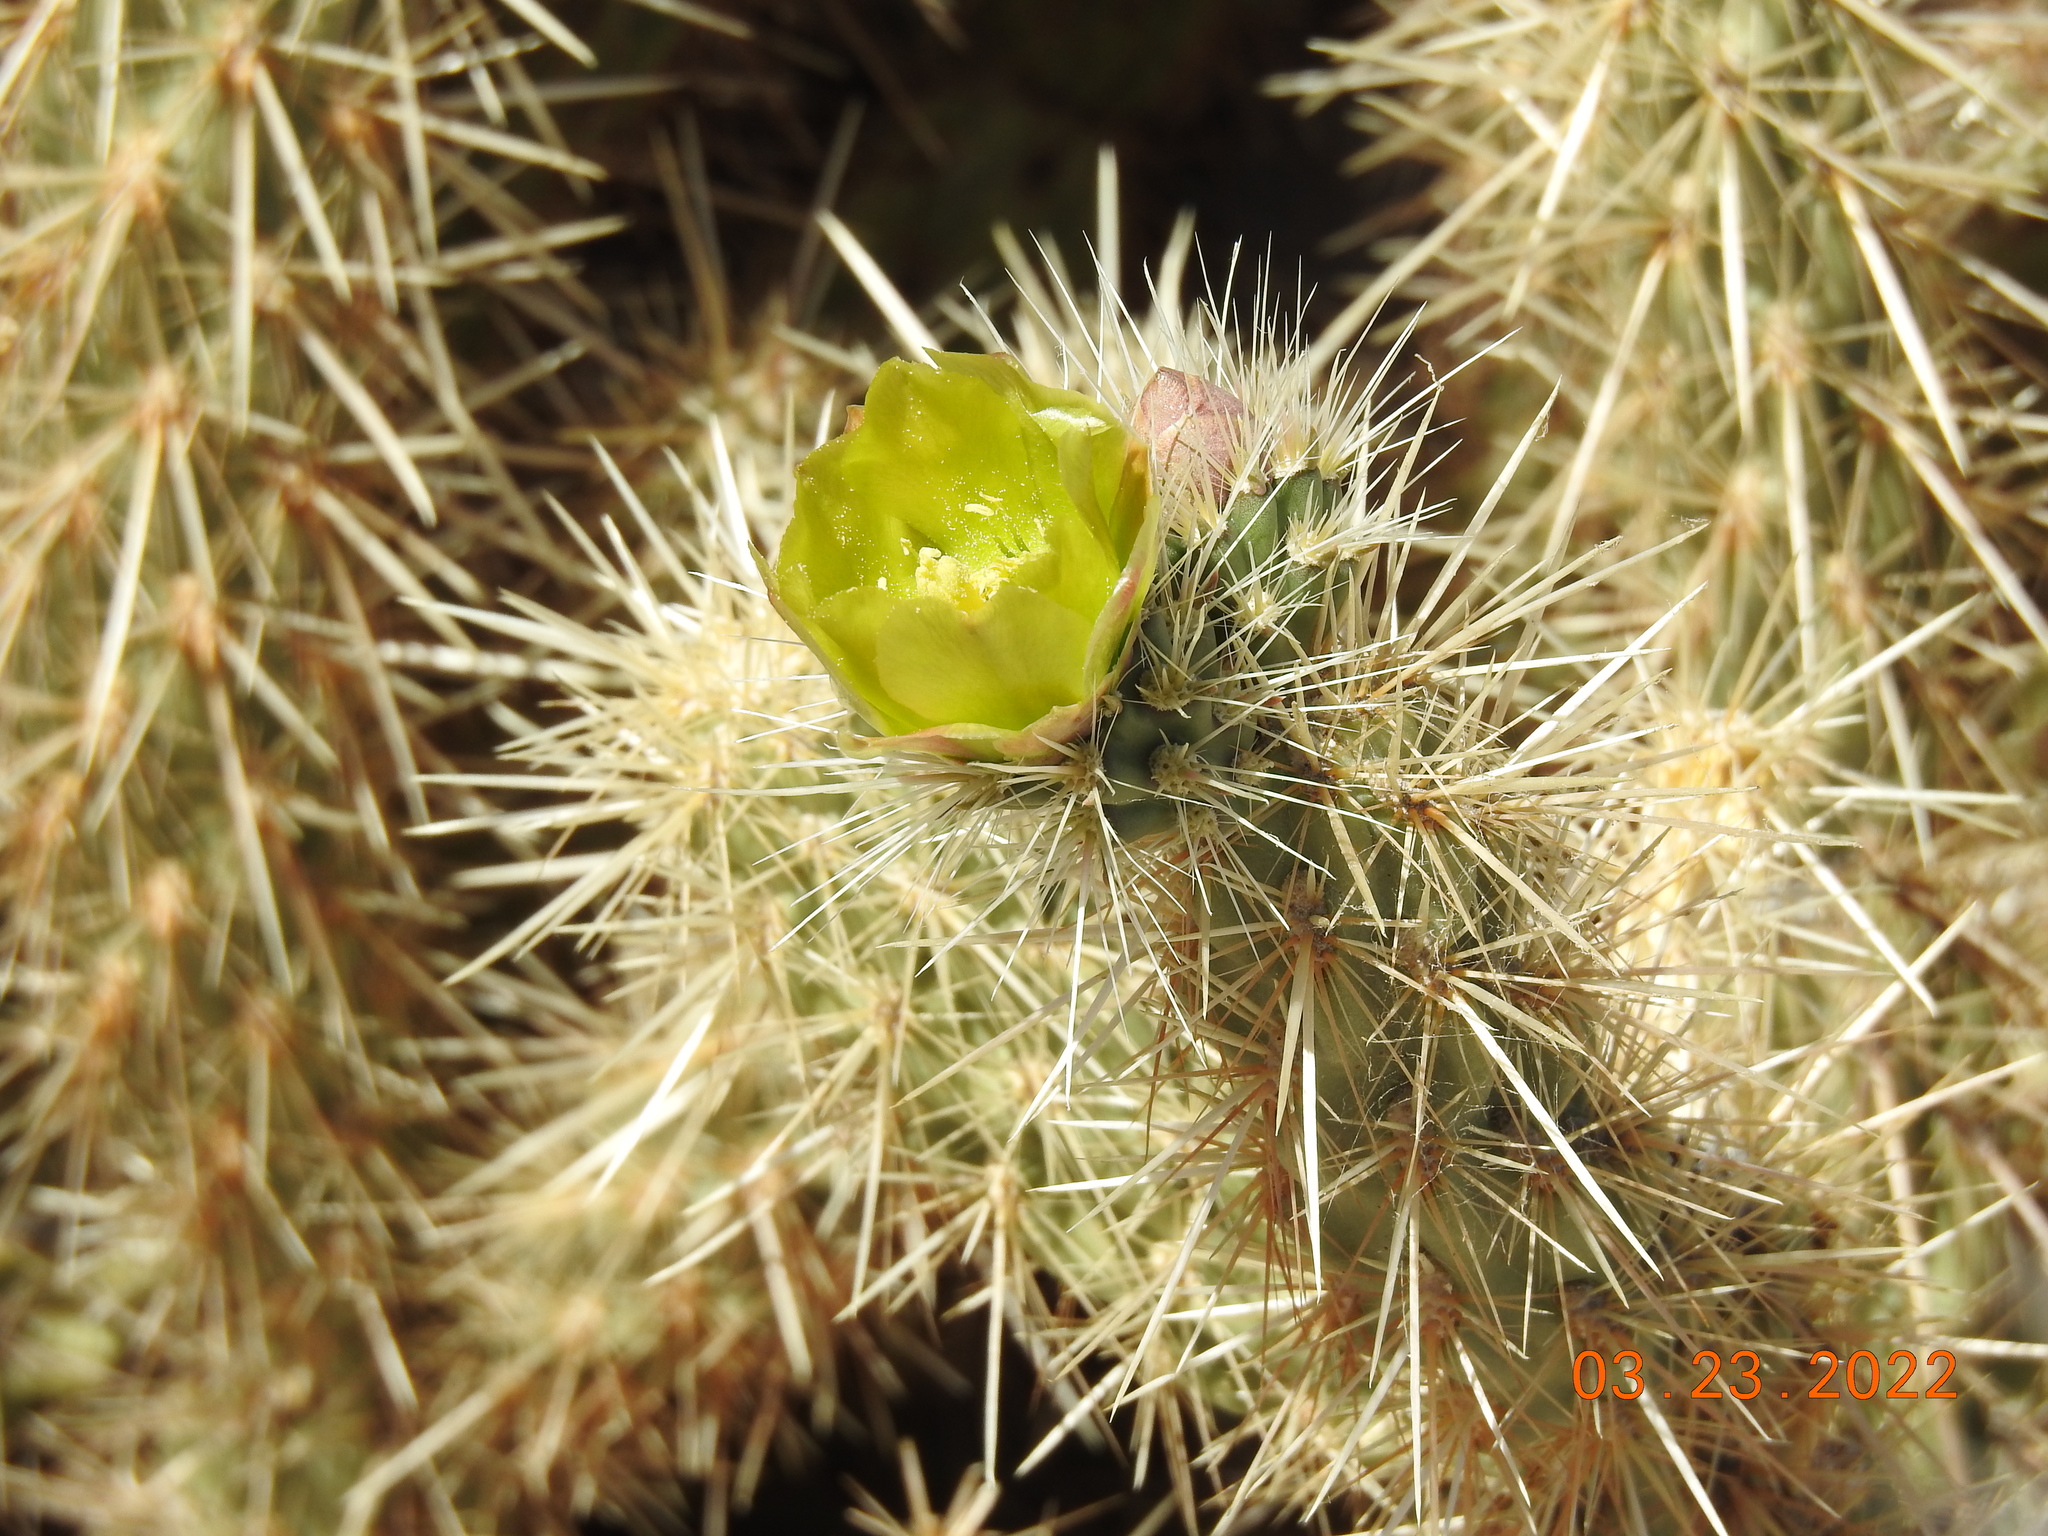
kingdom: Plantae
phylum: Tracheophyta
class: Magnoliopsida
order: Caryophyllales
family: Cactaceae
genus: Cylindropuntia
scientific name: Cylindropuntia ganderi
